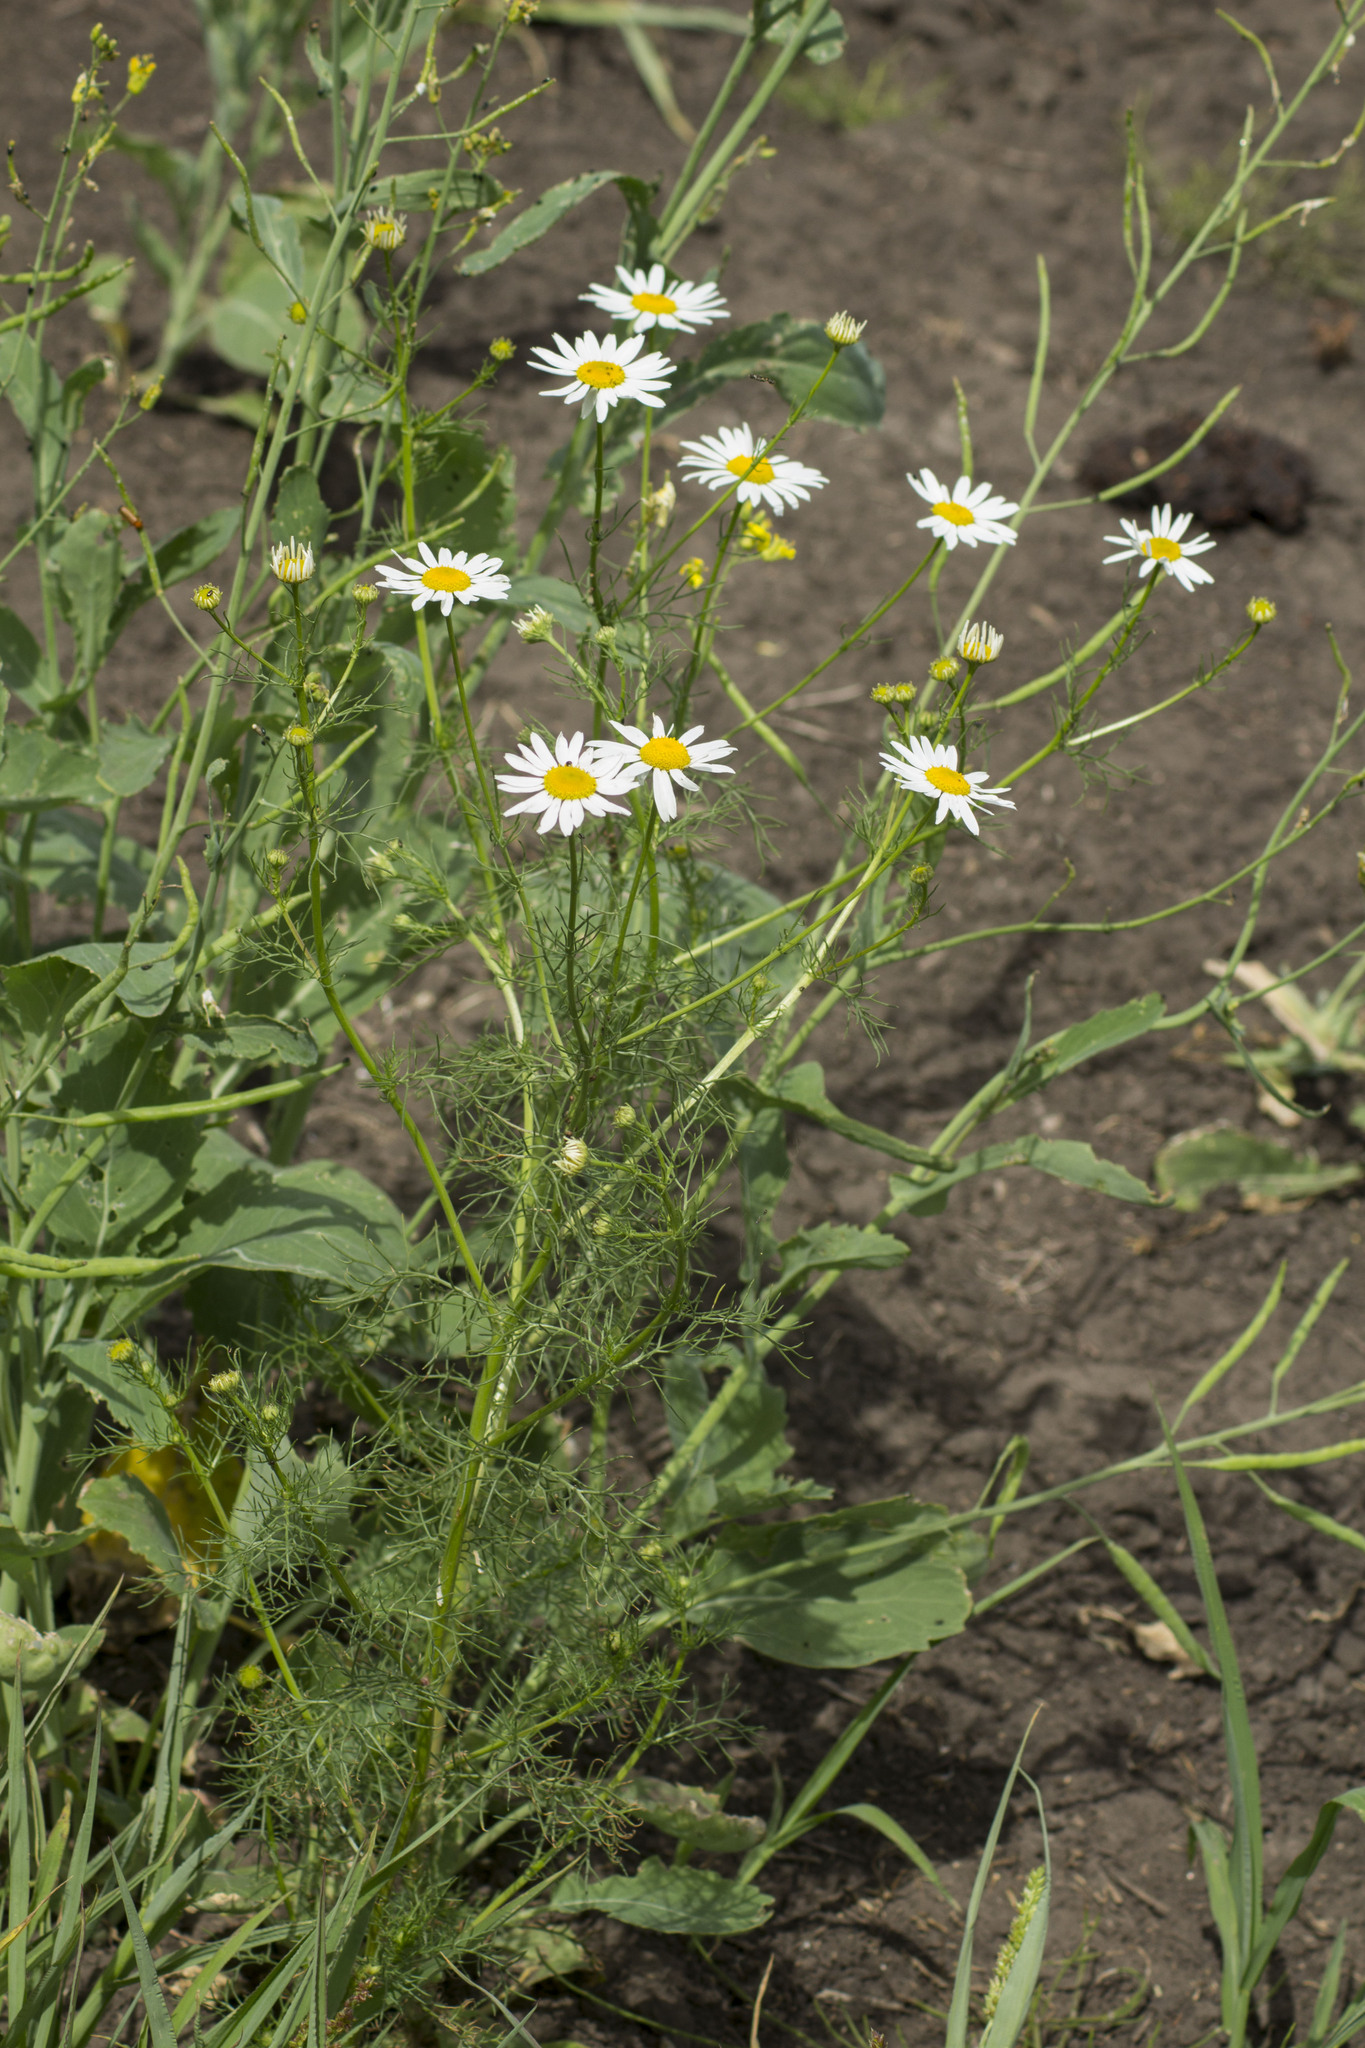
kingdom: Plantae
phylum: Tracheophyta
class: Magnoliopsida
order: Asterales
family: Asteraceae
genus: Tripleurospermum
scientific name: Tripleurospermum inodorum
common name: Scentless mayweed
